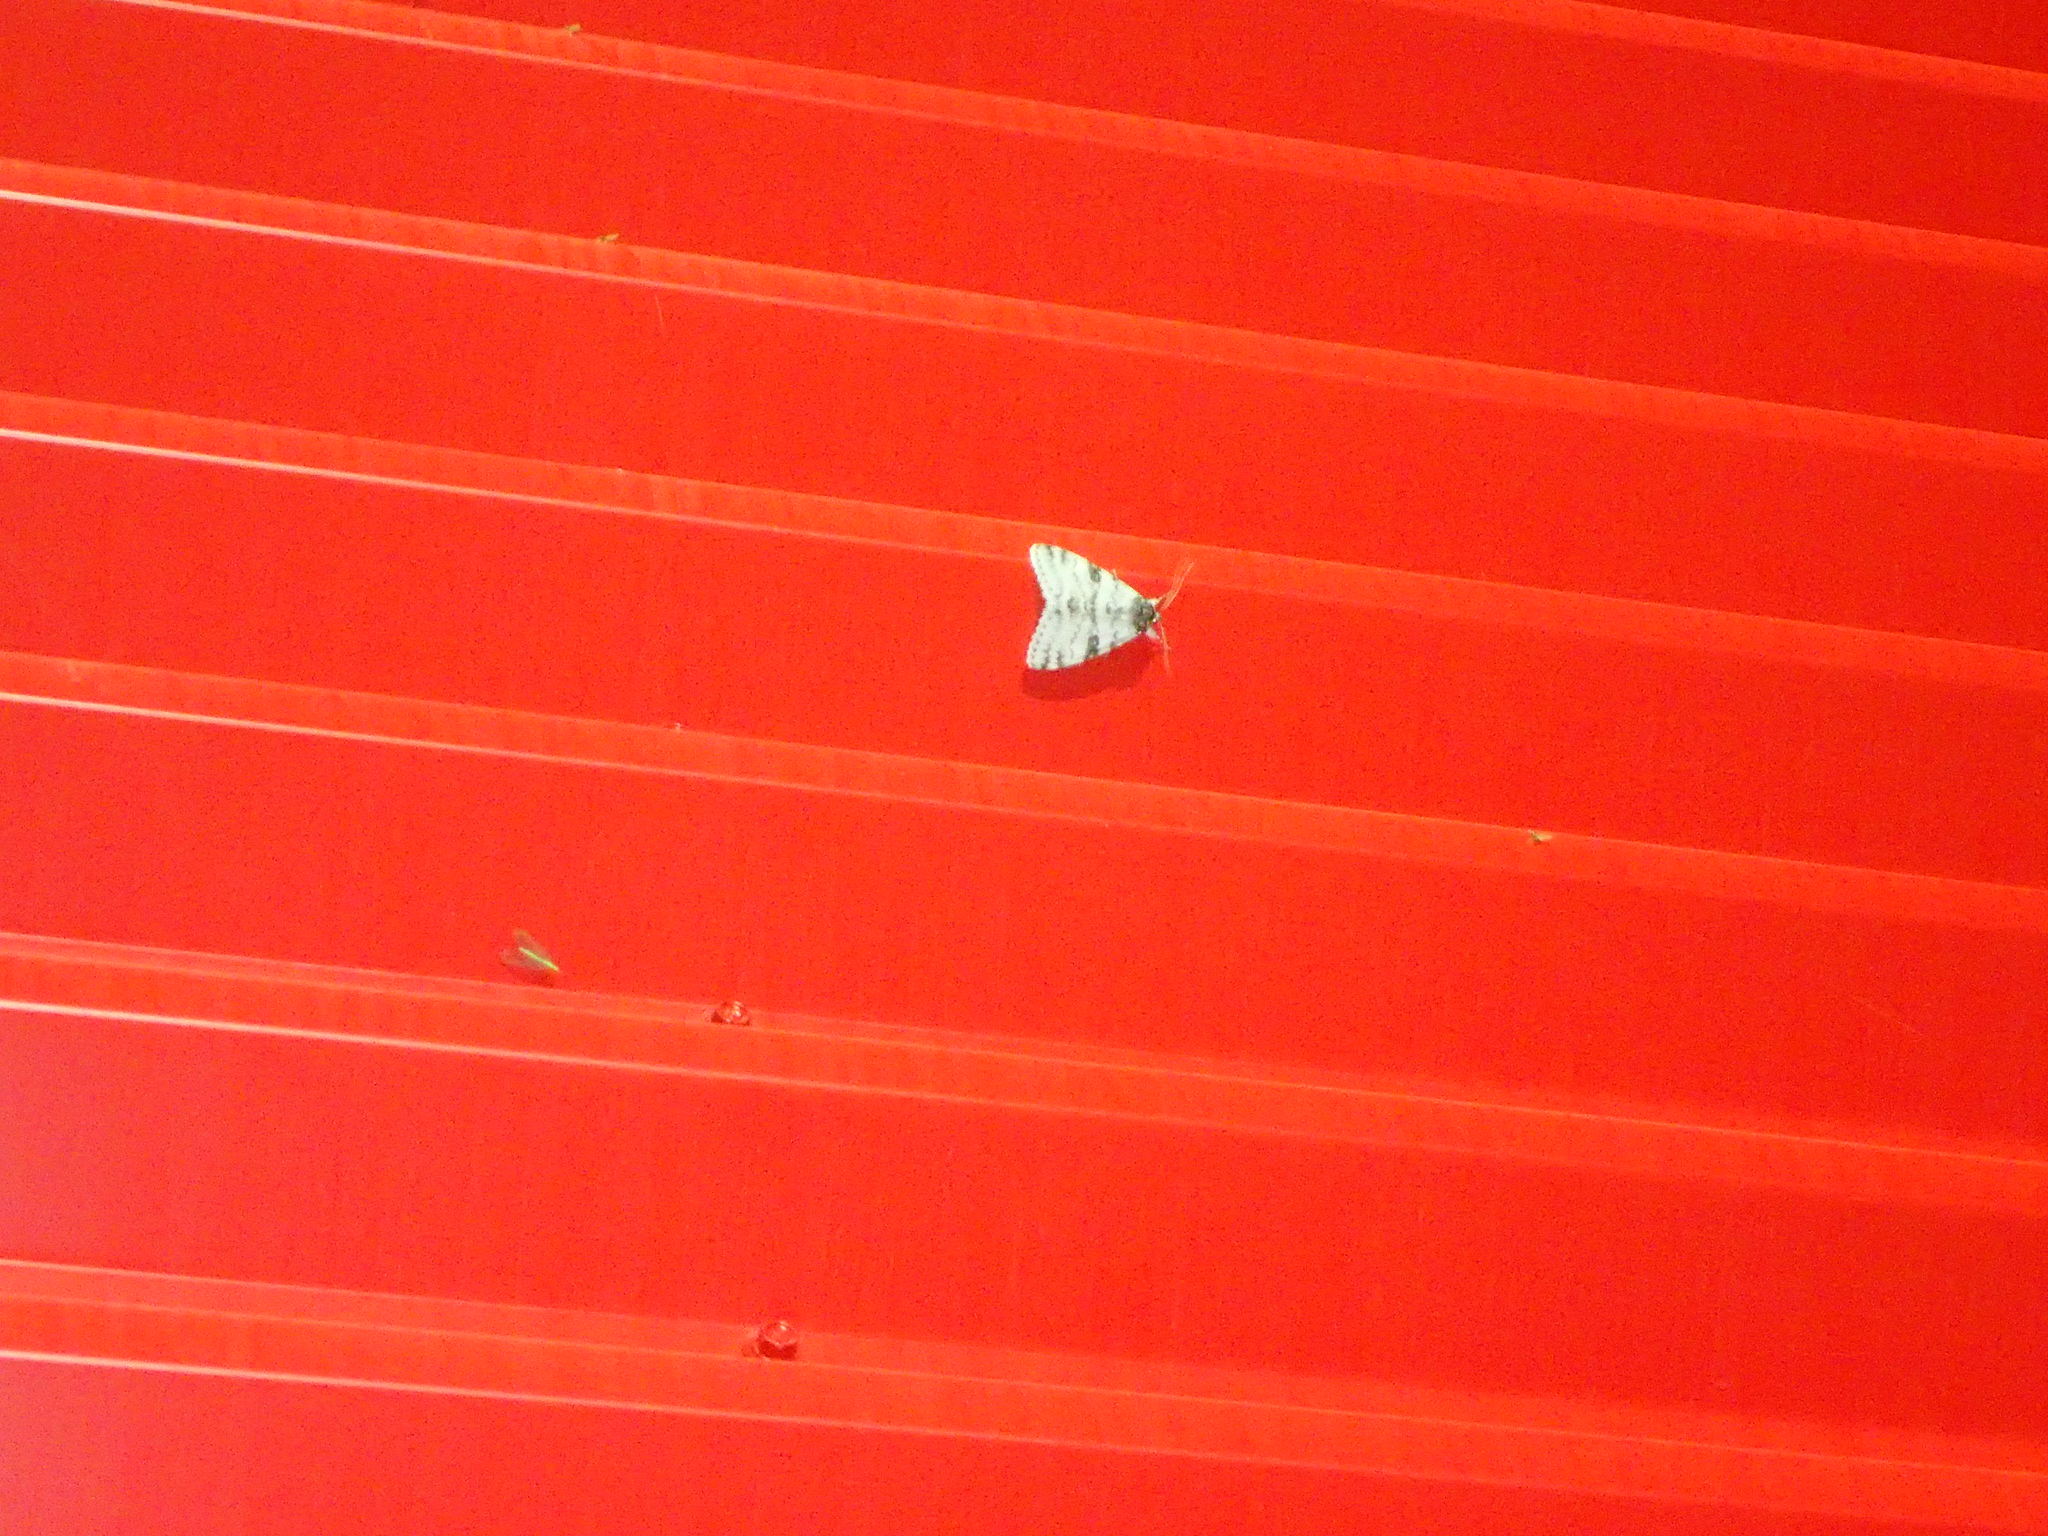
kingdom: Animalia
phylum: Arthropoda
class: Insecta
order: Lepidoptera
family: Erebidae
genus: Catocala
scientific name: Catocala relicta
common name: White underwing
